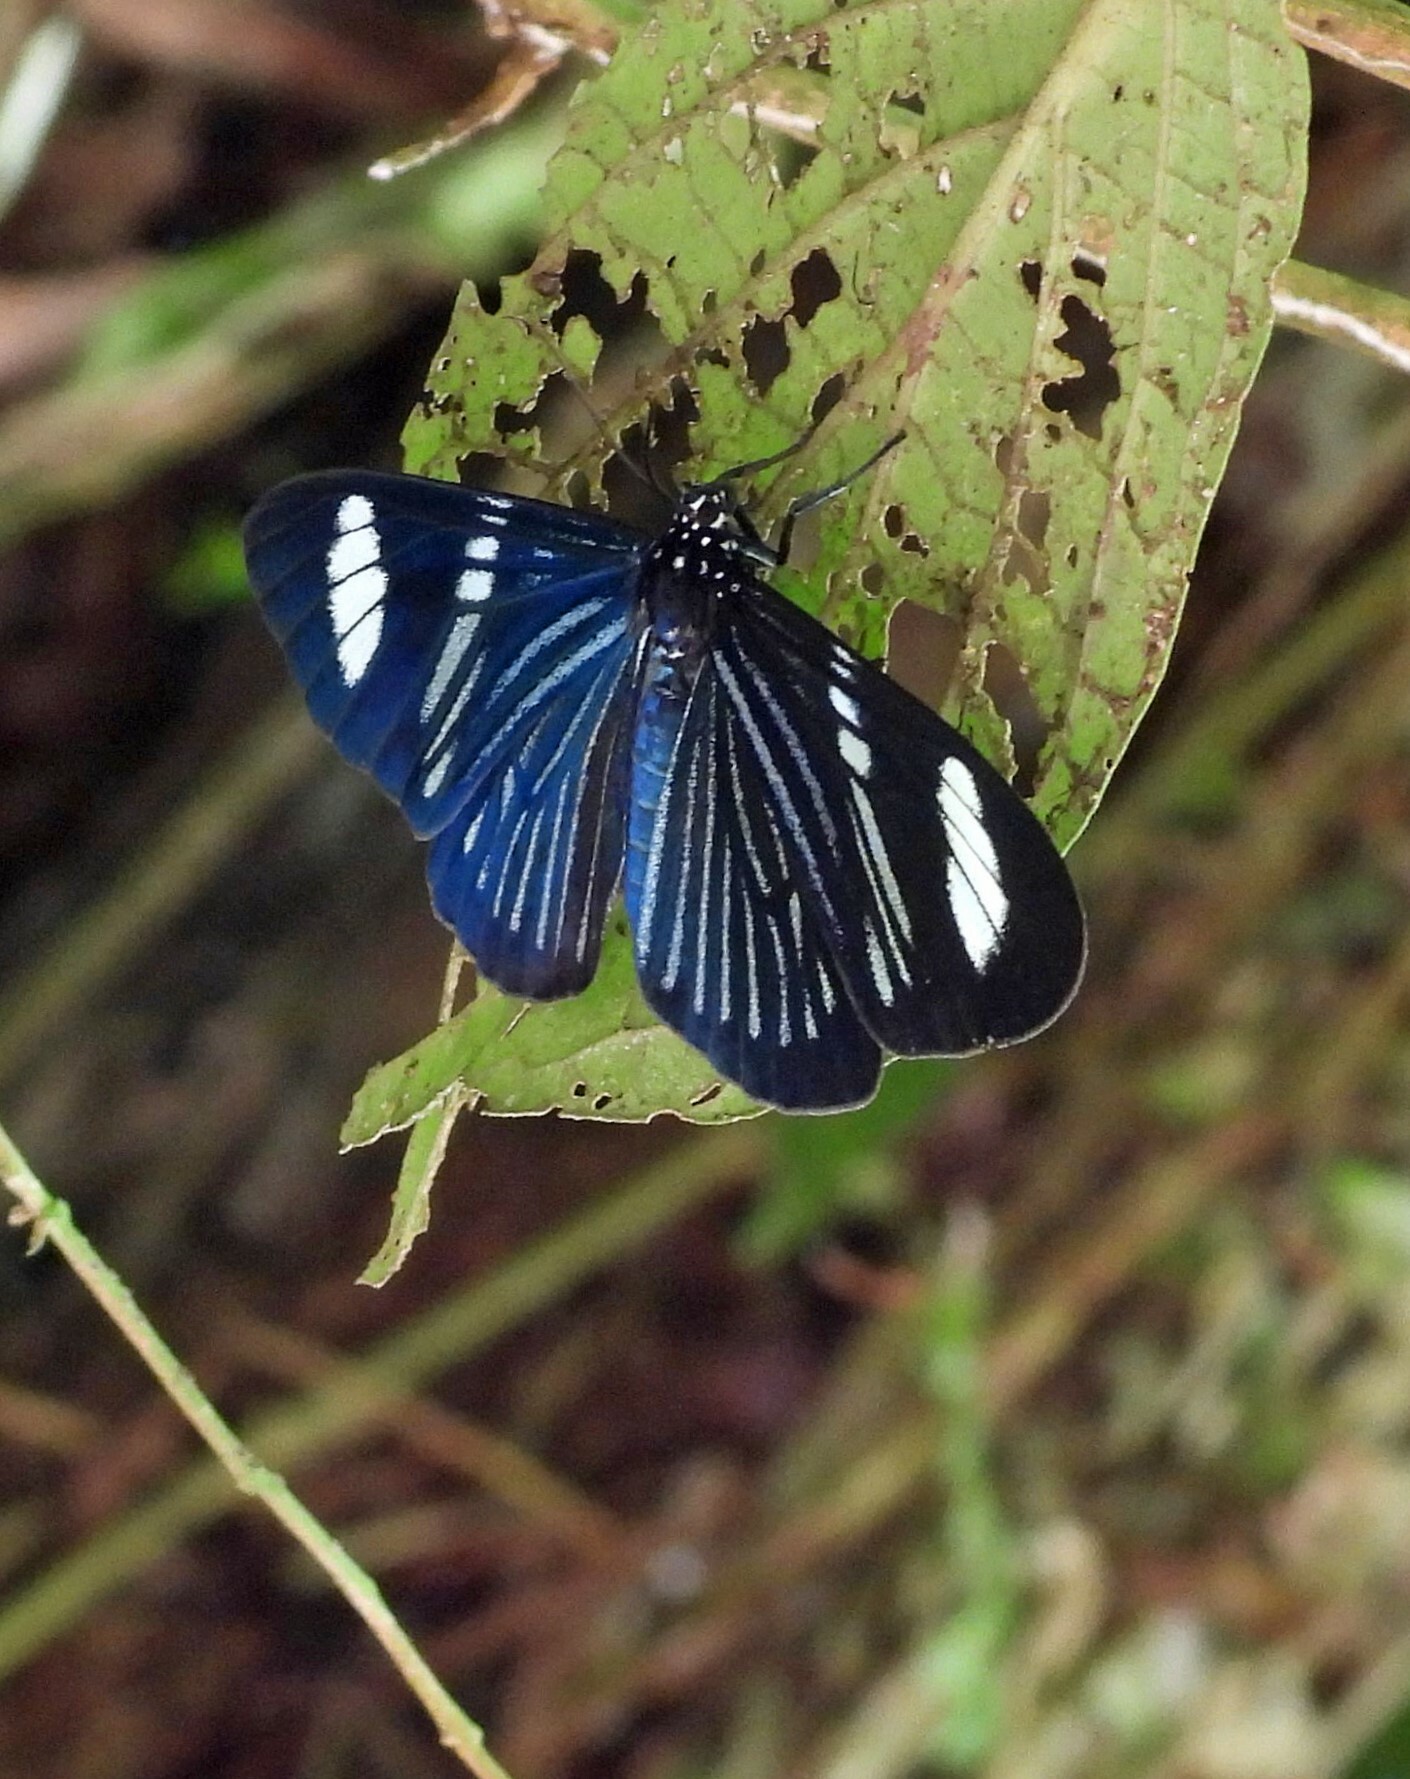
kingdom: Animalia
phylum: Arthropoda
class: Insecta
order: Lepidoptera
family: Erebidae
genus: Hypocrita
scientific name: Hypocrita
